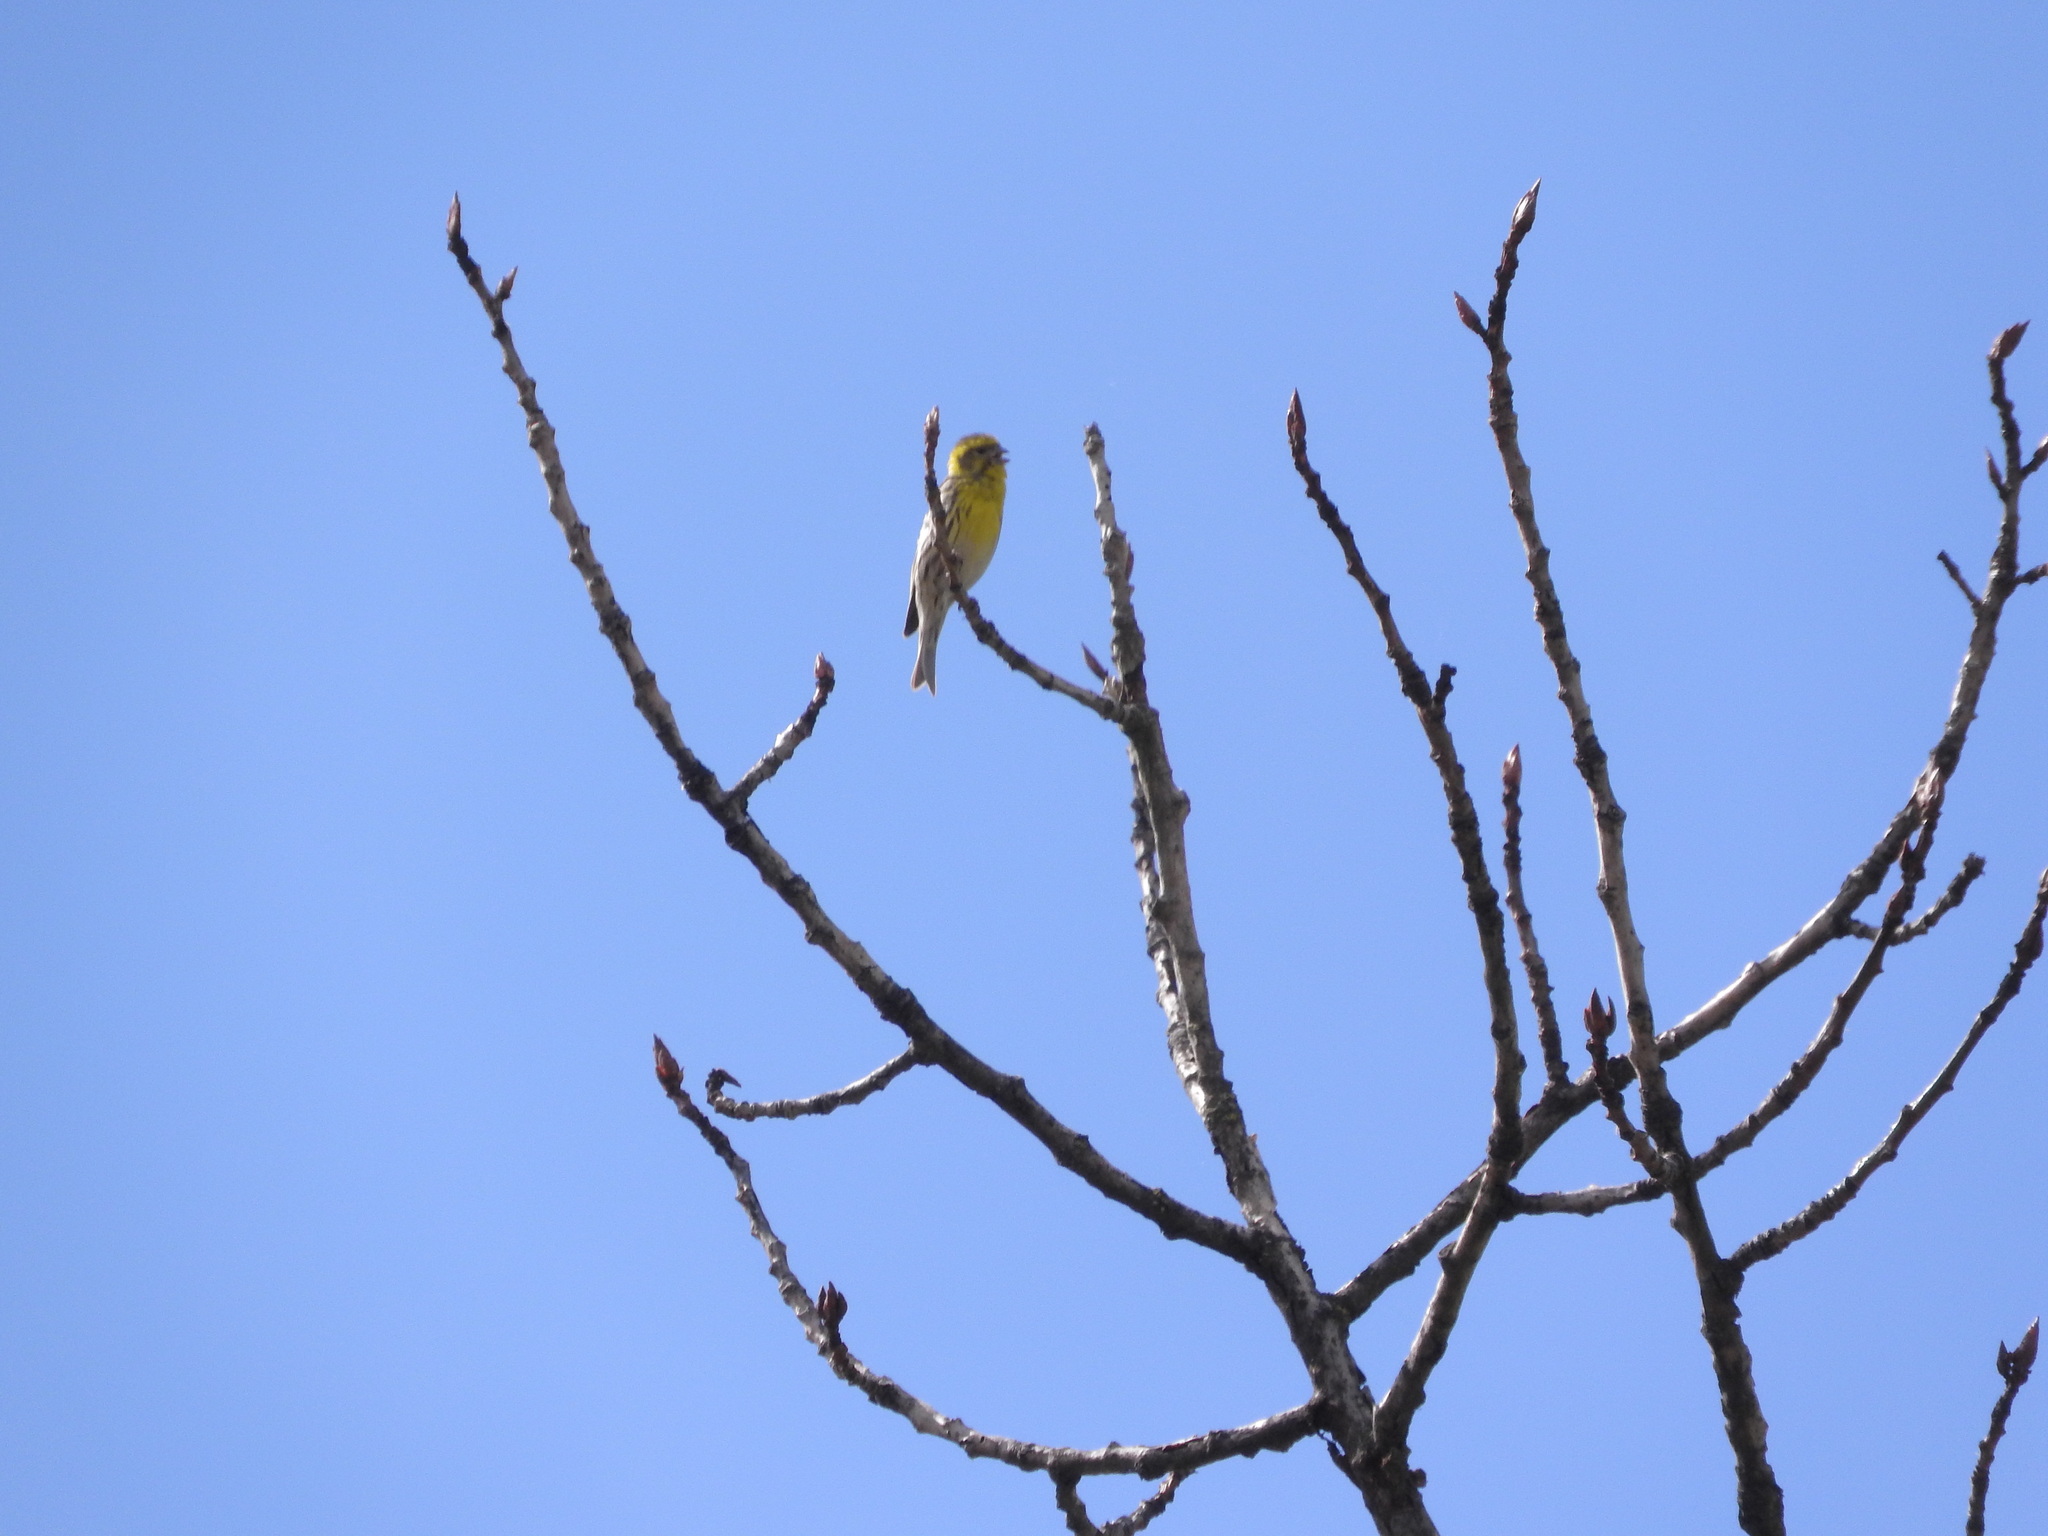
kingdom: Animalia
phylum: Chordata
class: Aves
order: Passeriformes
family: Fringillidae
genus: Serinus
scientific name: Serinus serinus
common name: European serin
